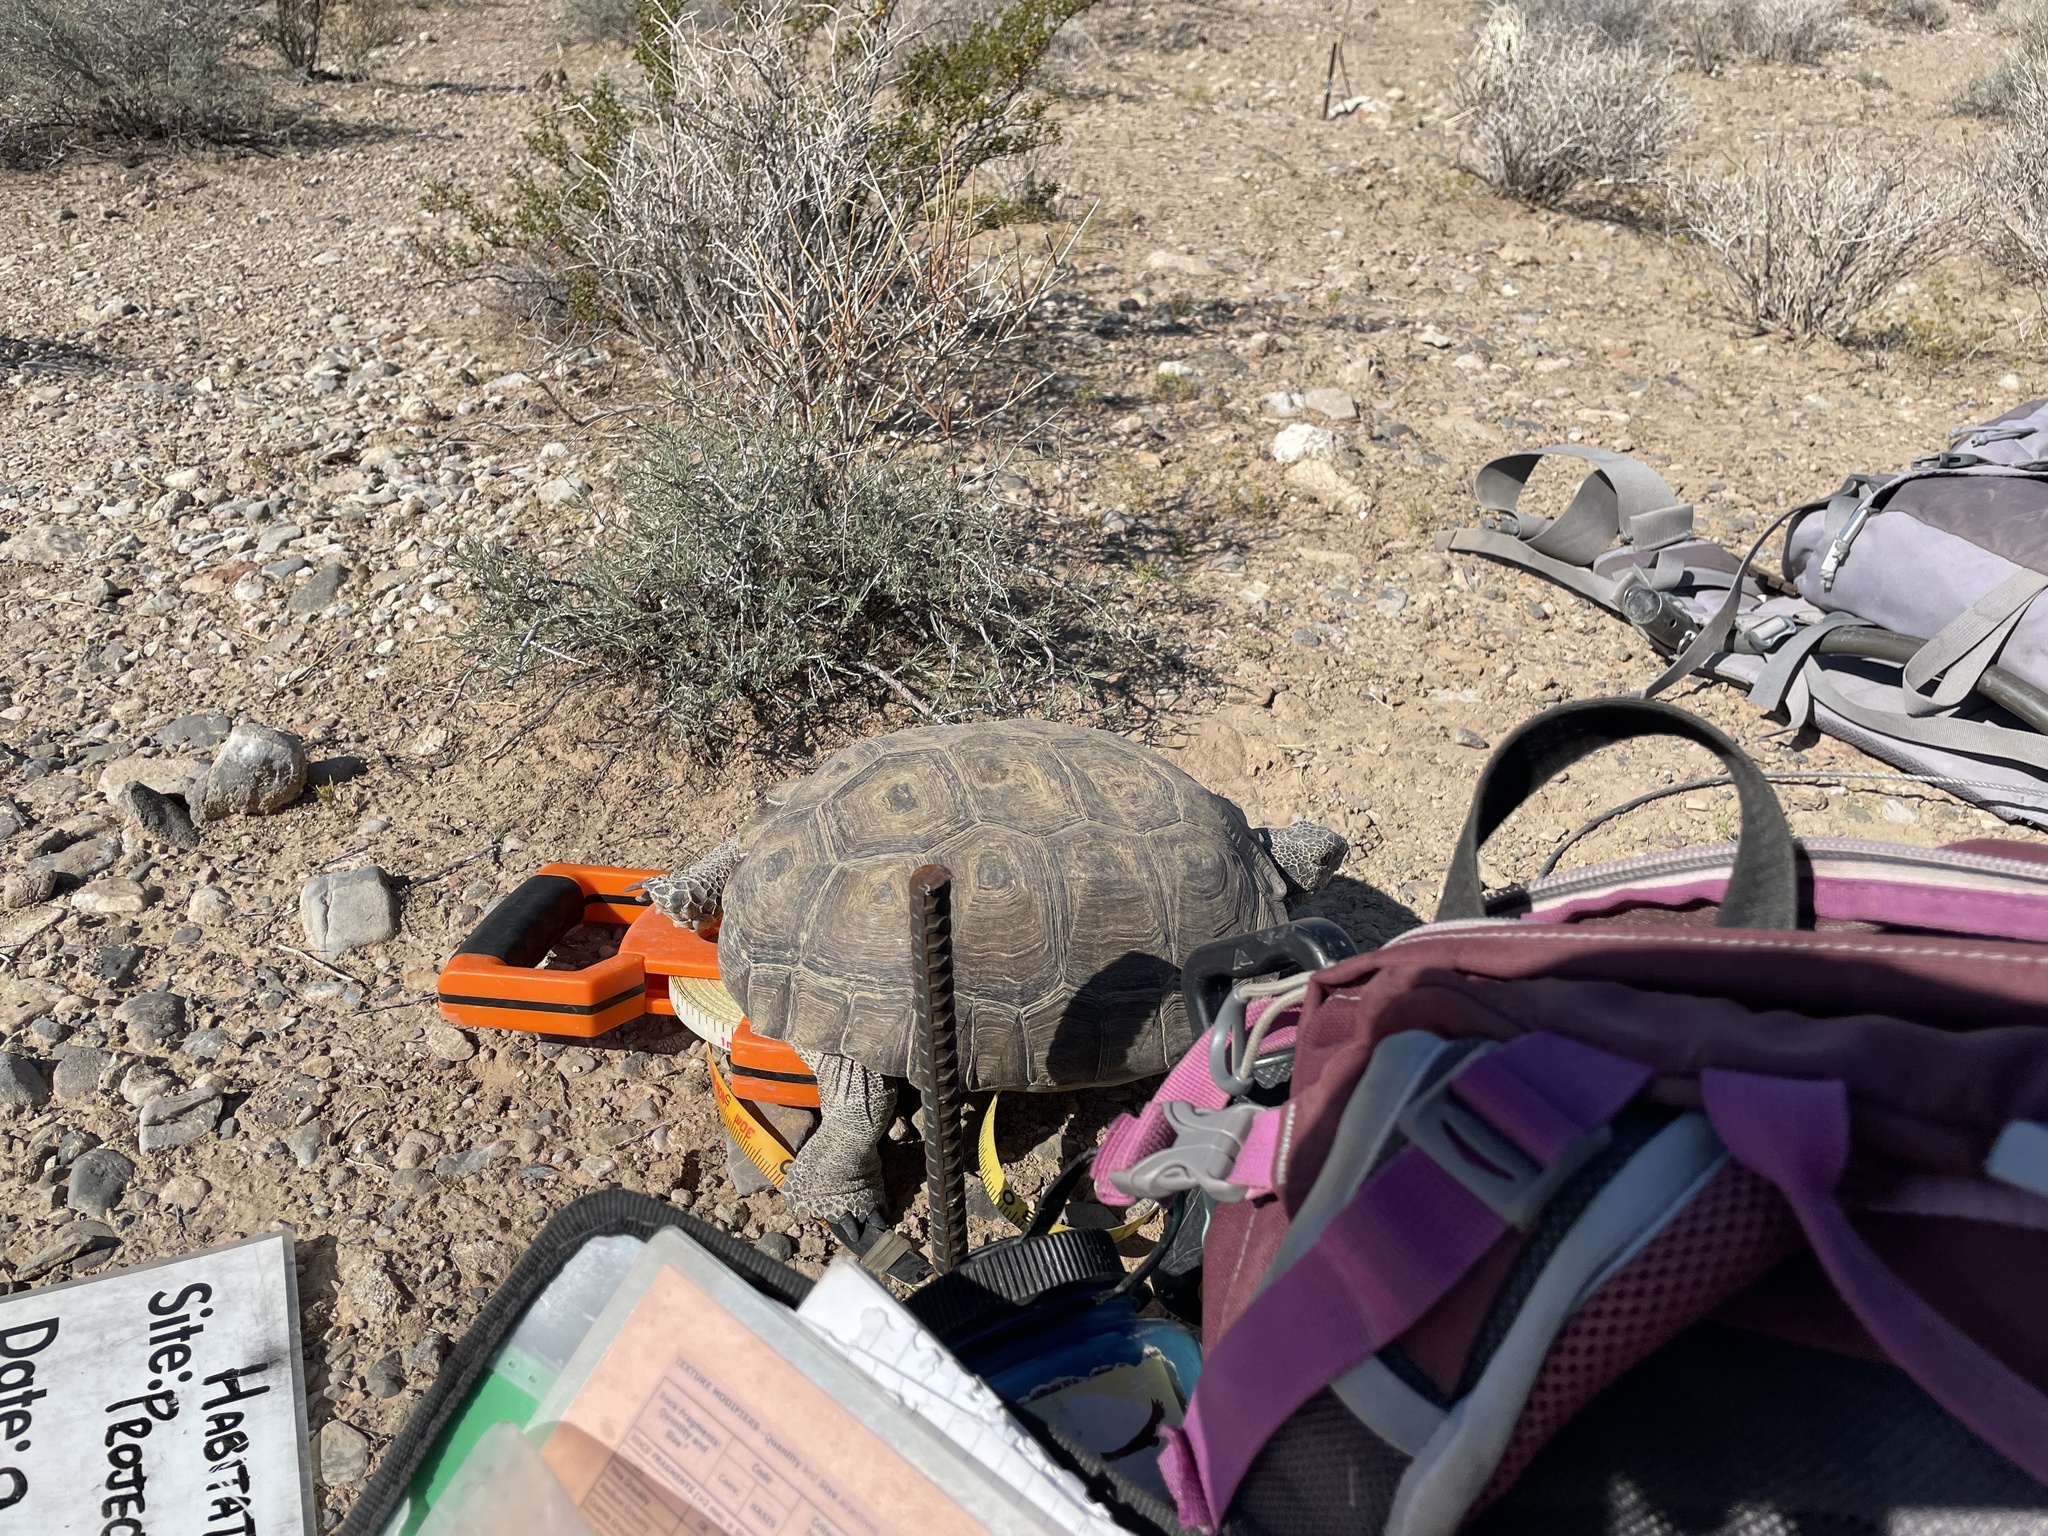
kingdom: Animalia
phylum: Chordata
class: Testudines
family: Testudinidae
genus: Gopherus
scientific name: Gopherus agassizii
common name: Mojave desert tortoise
